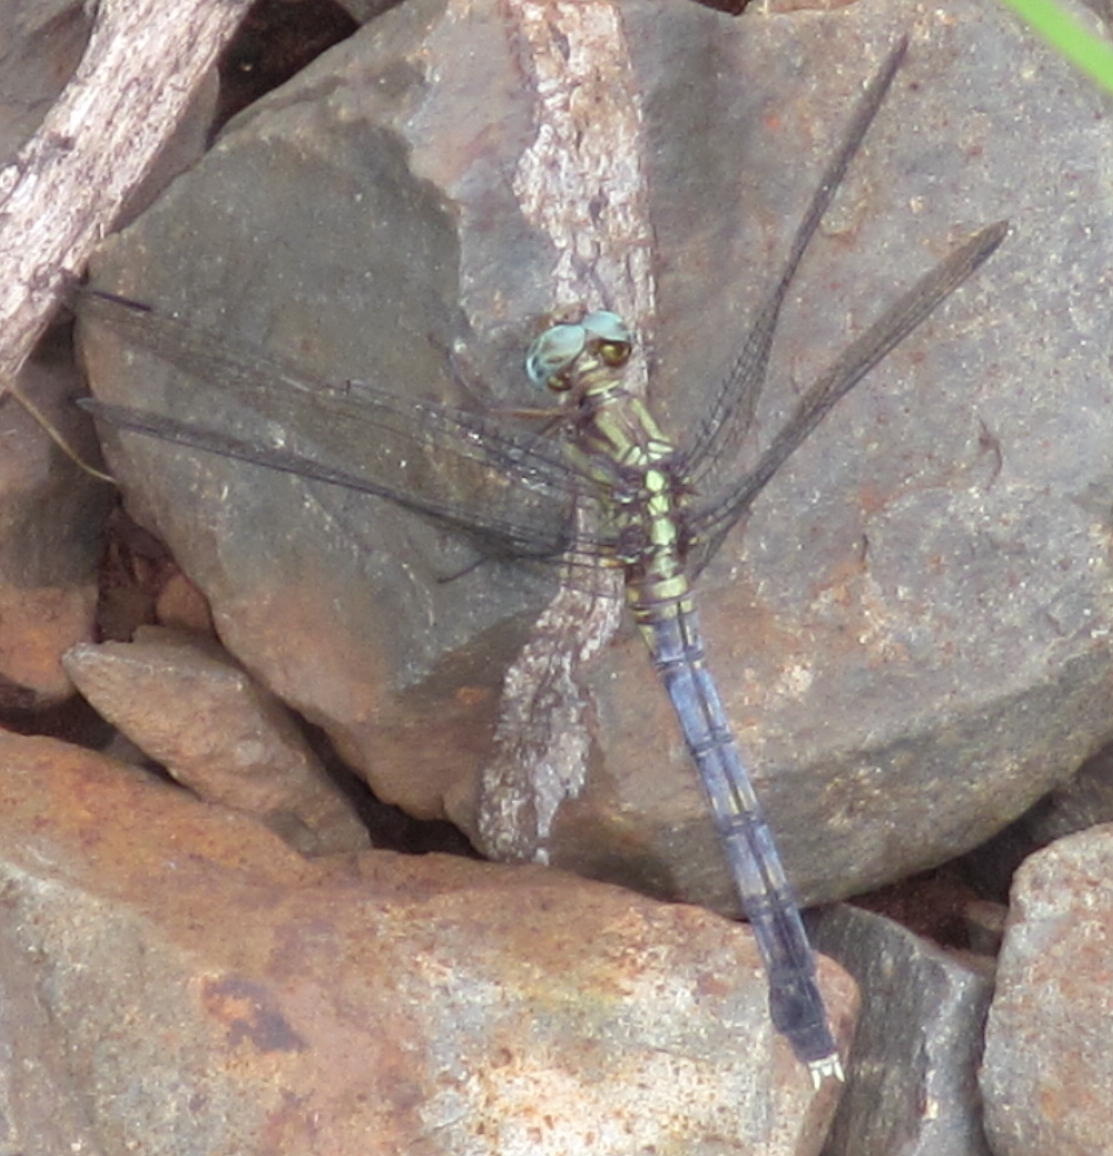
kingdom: Animalia
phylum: Arthropoda
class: Insecta
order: Odonata
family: Libellulidae
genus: Orthetrum
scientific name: Orthetrum julia
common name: Julia skimmer
